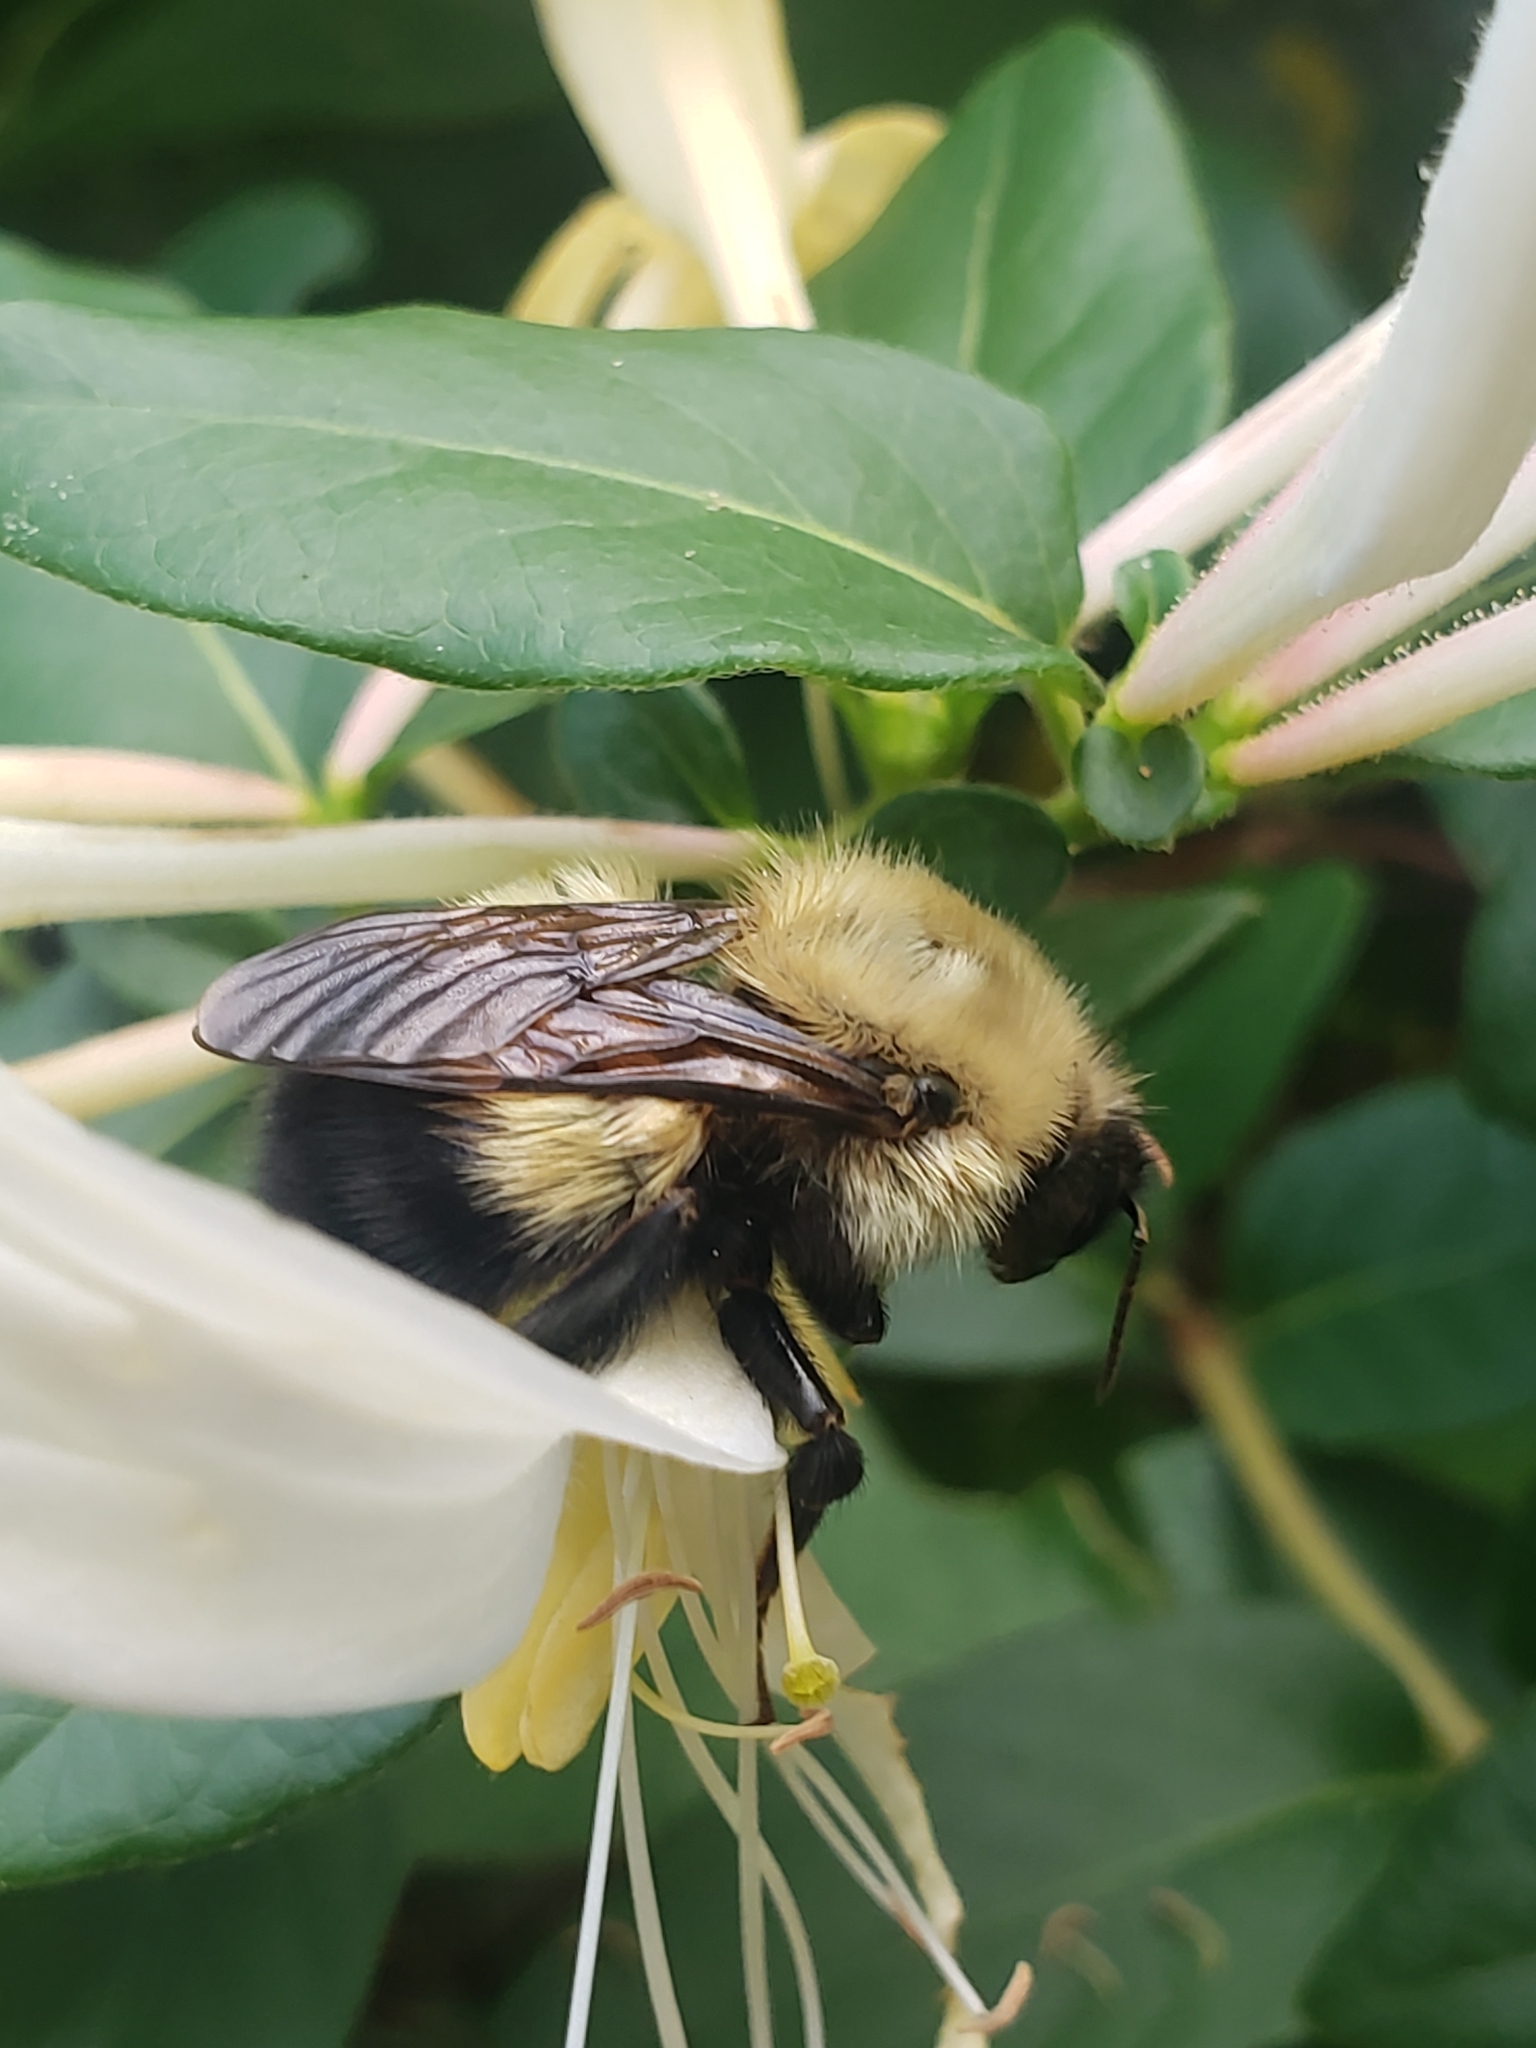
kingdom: Animalia
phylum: Arthropoda
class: Insecta
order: Hymenoptera
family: Apidae
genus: Pyrobombus
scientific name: Pyrobombus
